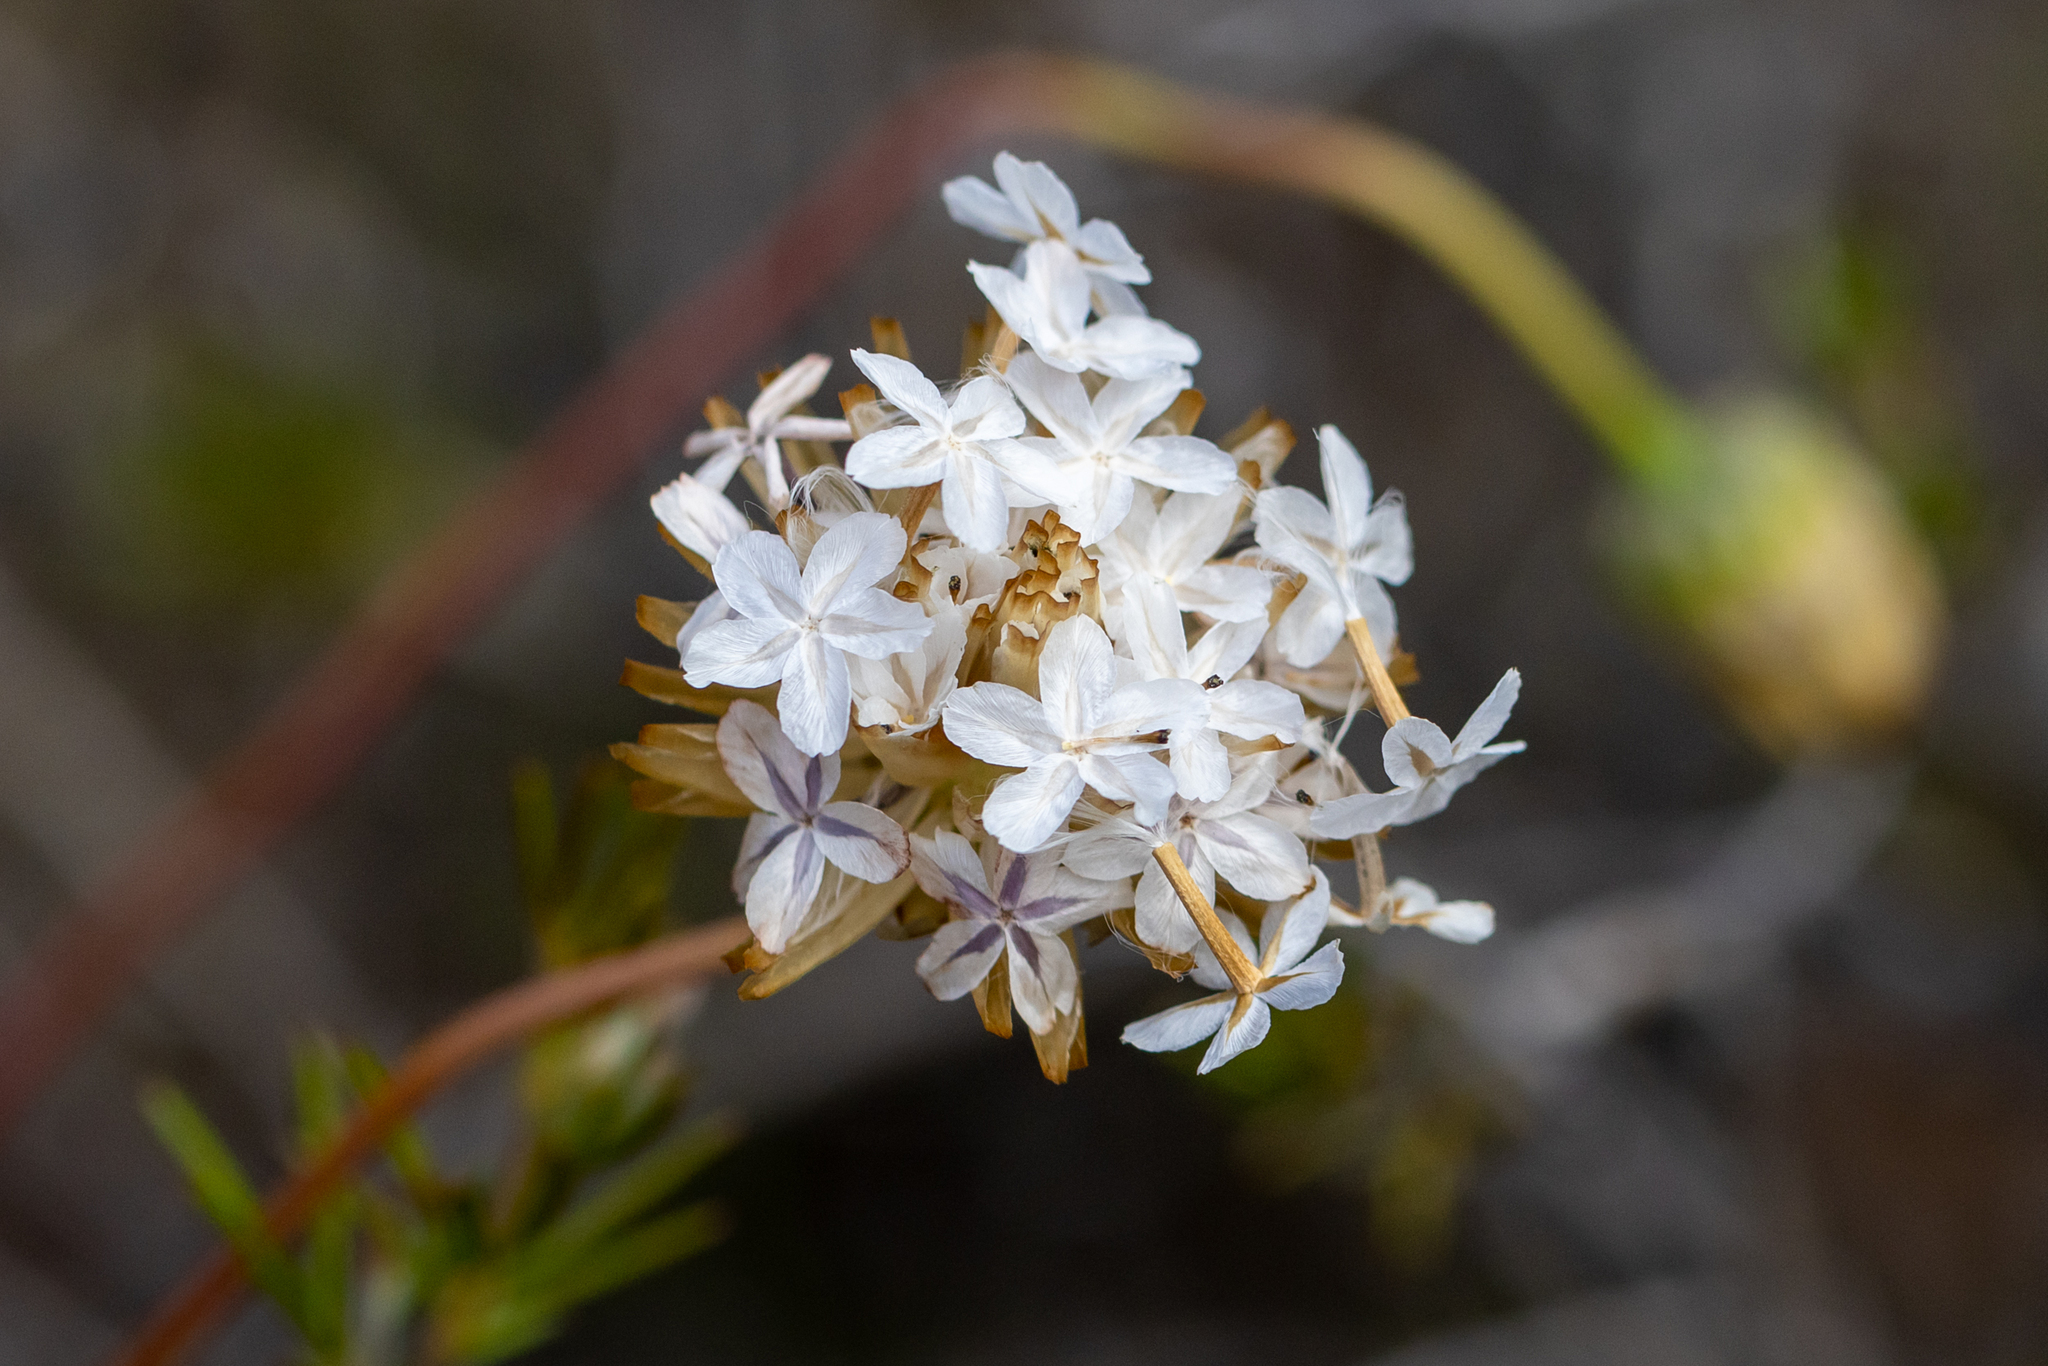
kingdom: Plantae
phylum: Tracheophyta
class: Magnoliopsida
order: Asterales
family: Asteraceae
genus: Ursinia
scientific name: Ursinia anthemoides
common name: Ursinia
